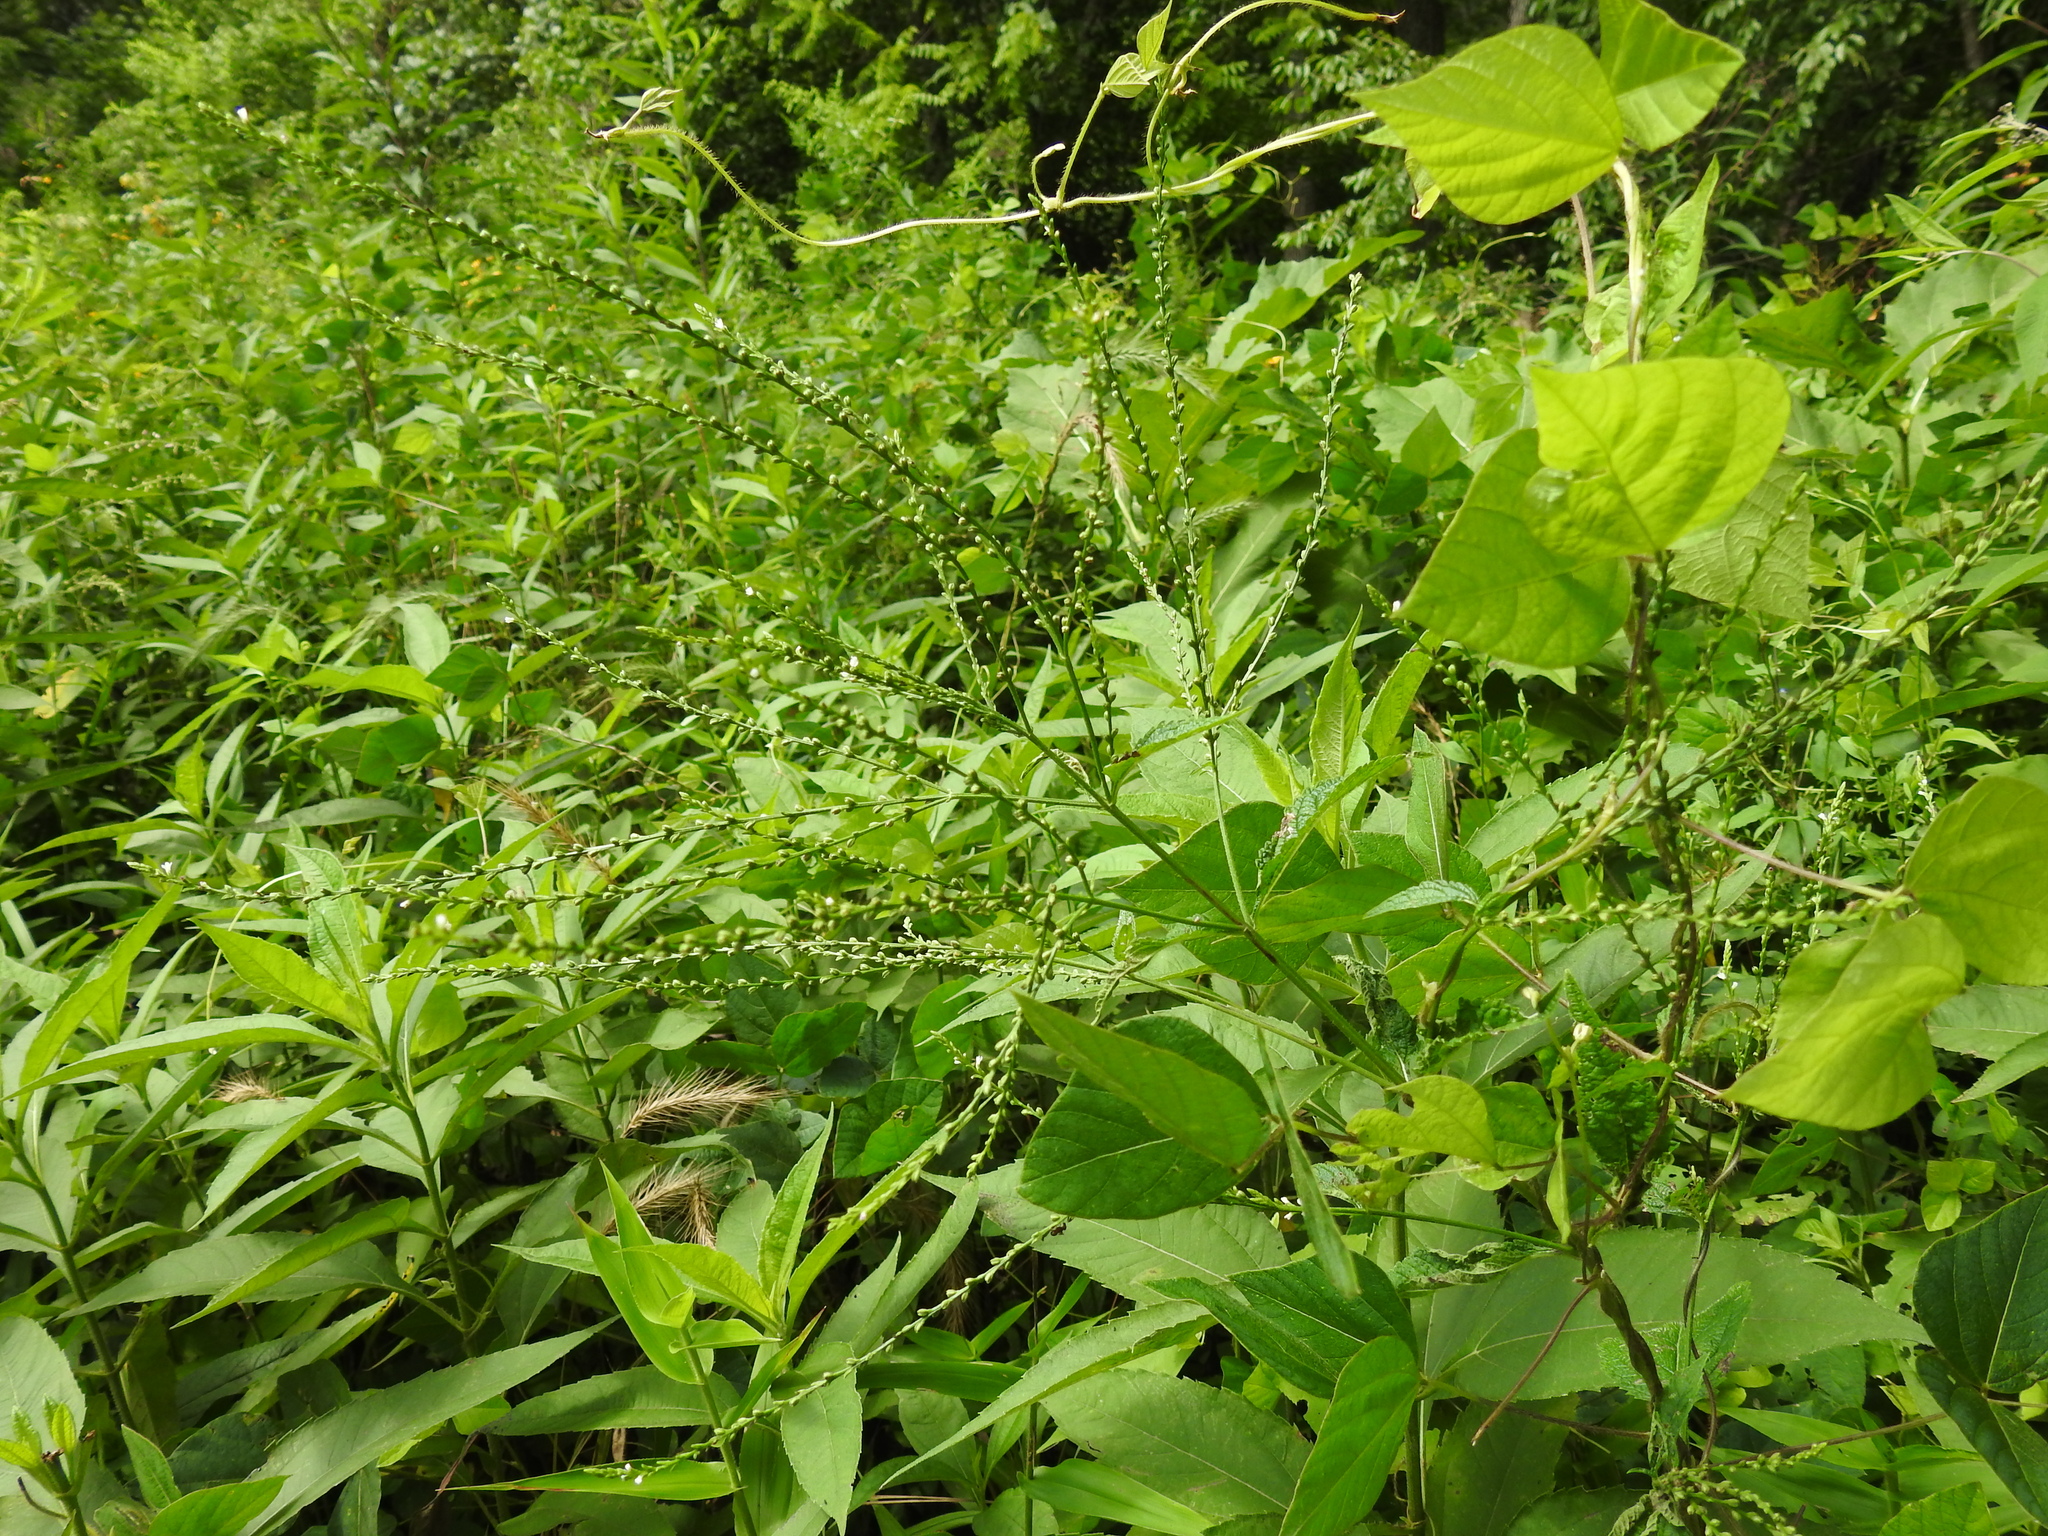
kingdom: Plantae
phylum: Tracheophyta
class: Magnoliopsida
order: Lamiales
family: Verbenaceae
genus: Verbena
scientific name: Verbena urticifolia
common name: Nettle-leaved vervain
